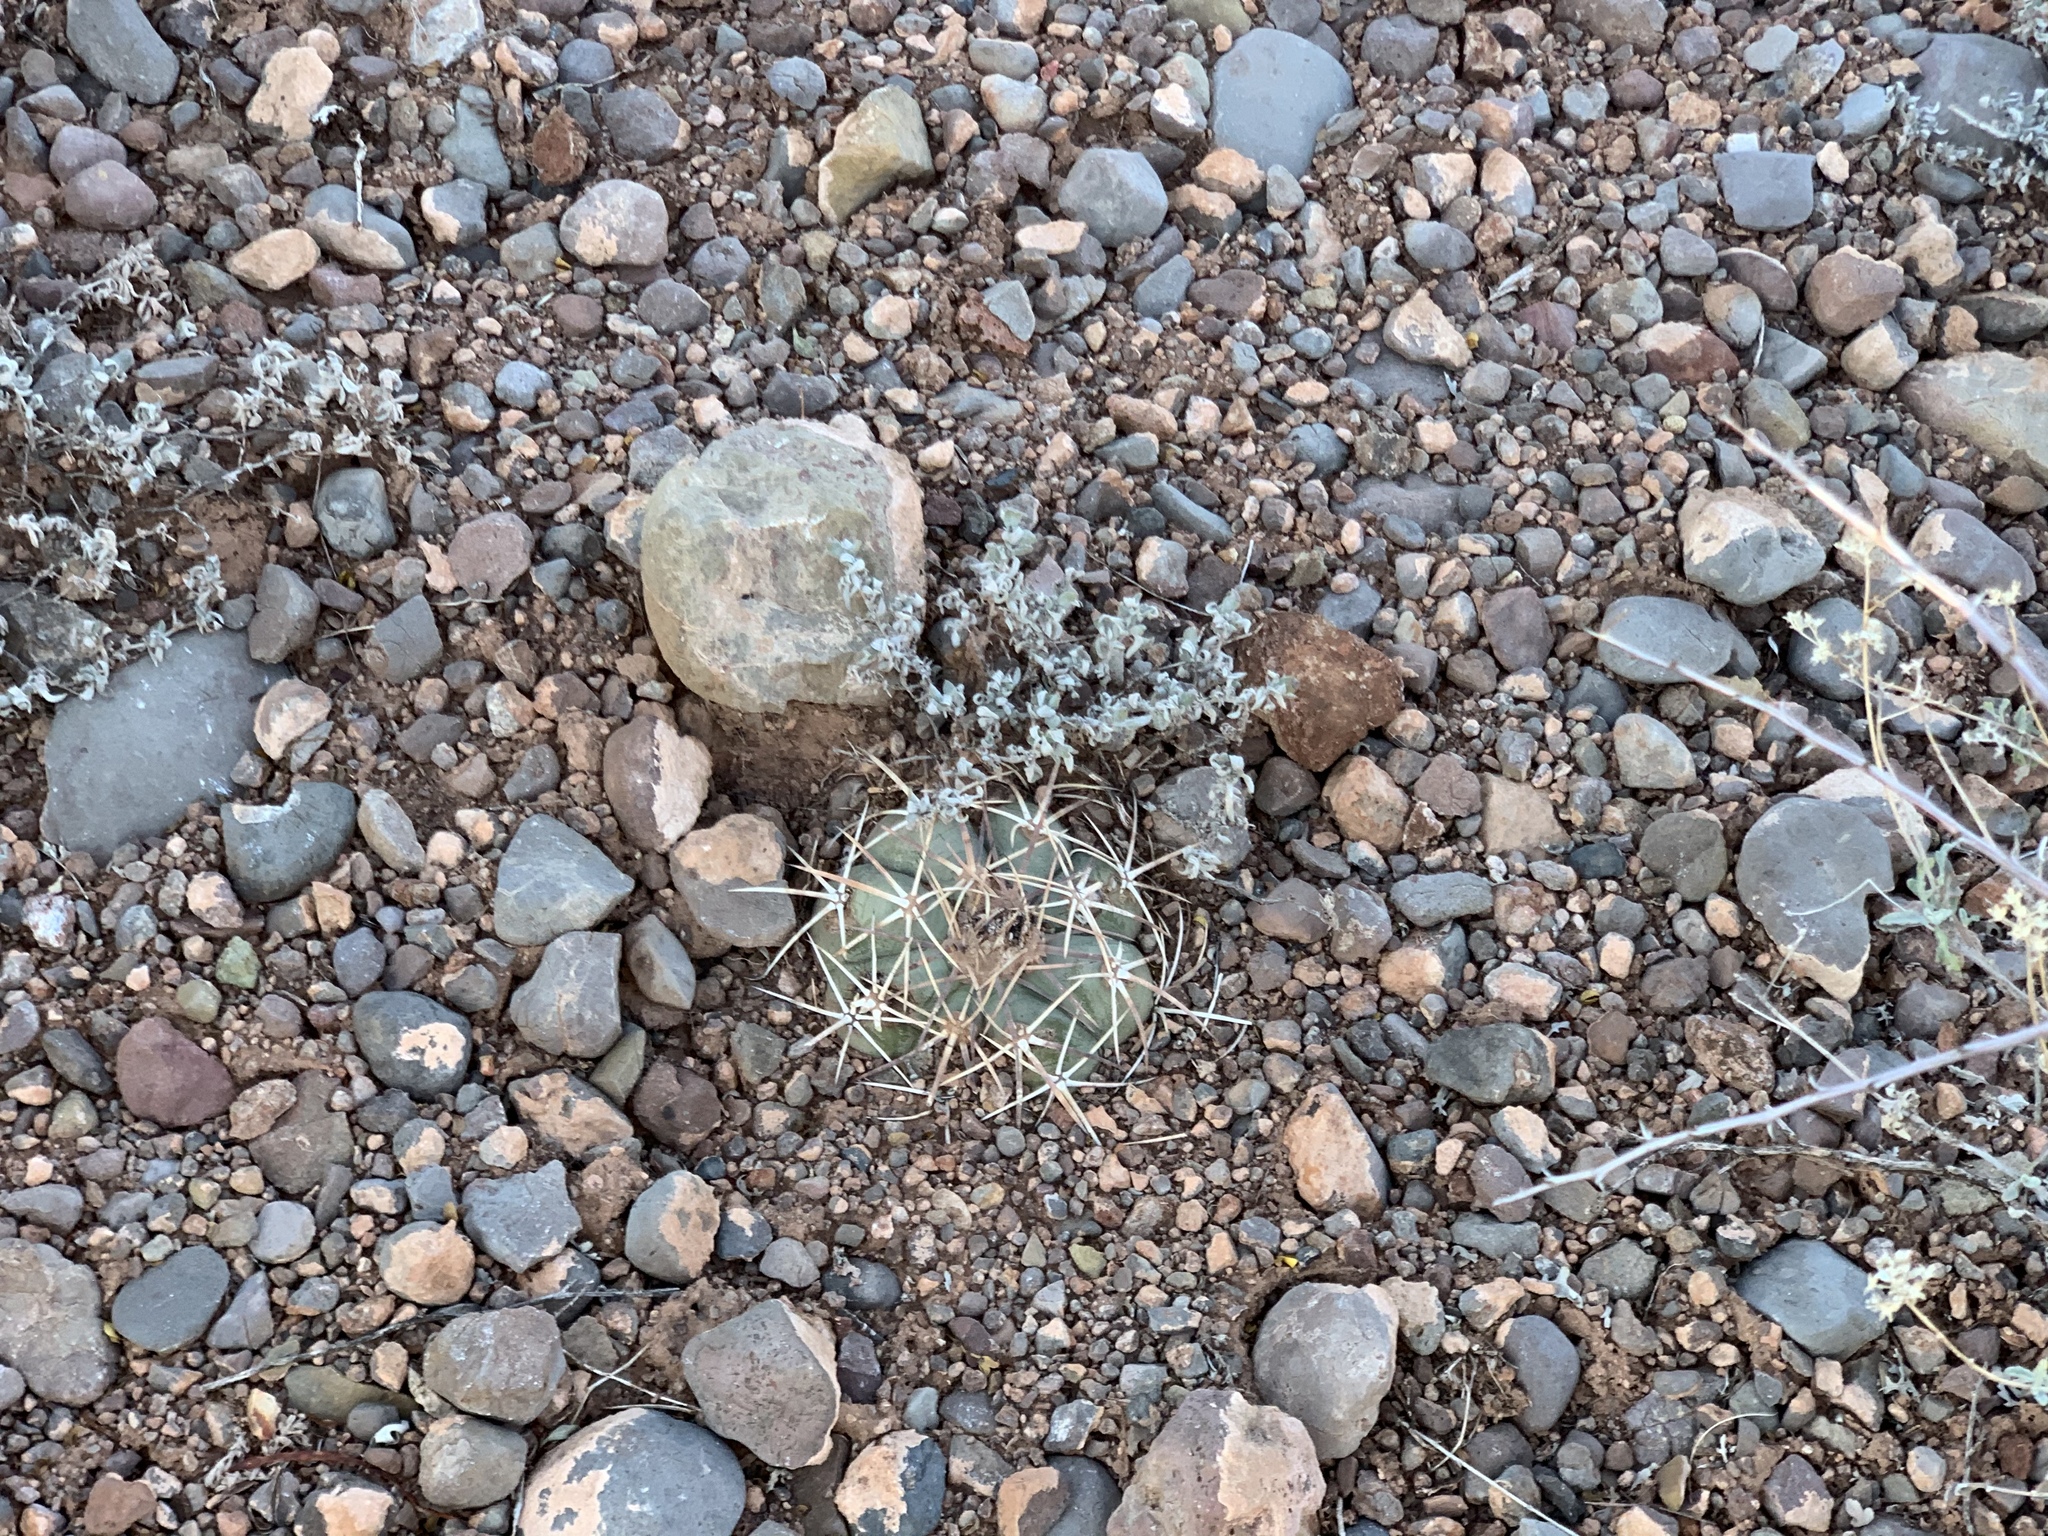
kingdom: Plantae
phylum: Tracheophyta
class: Magnoliopsida
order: Caryophyllales
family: Cactaceae
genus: Echinocactus
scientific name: Echinocactus horizonthalonius
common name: Devilshead
